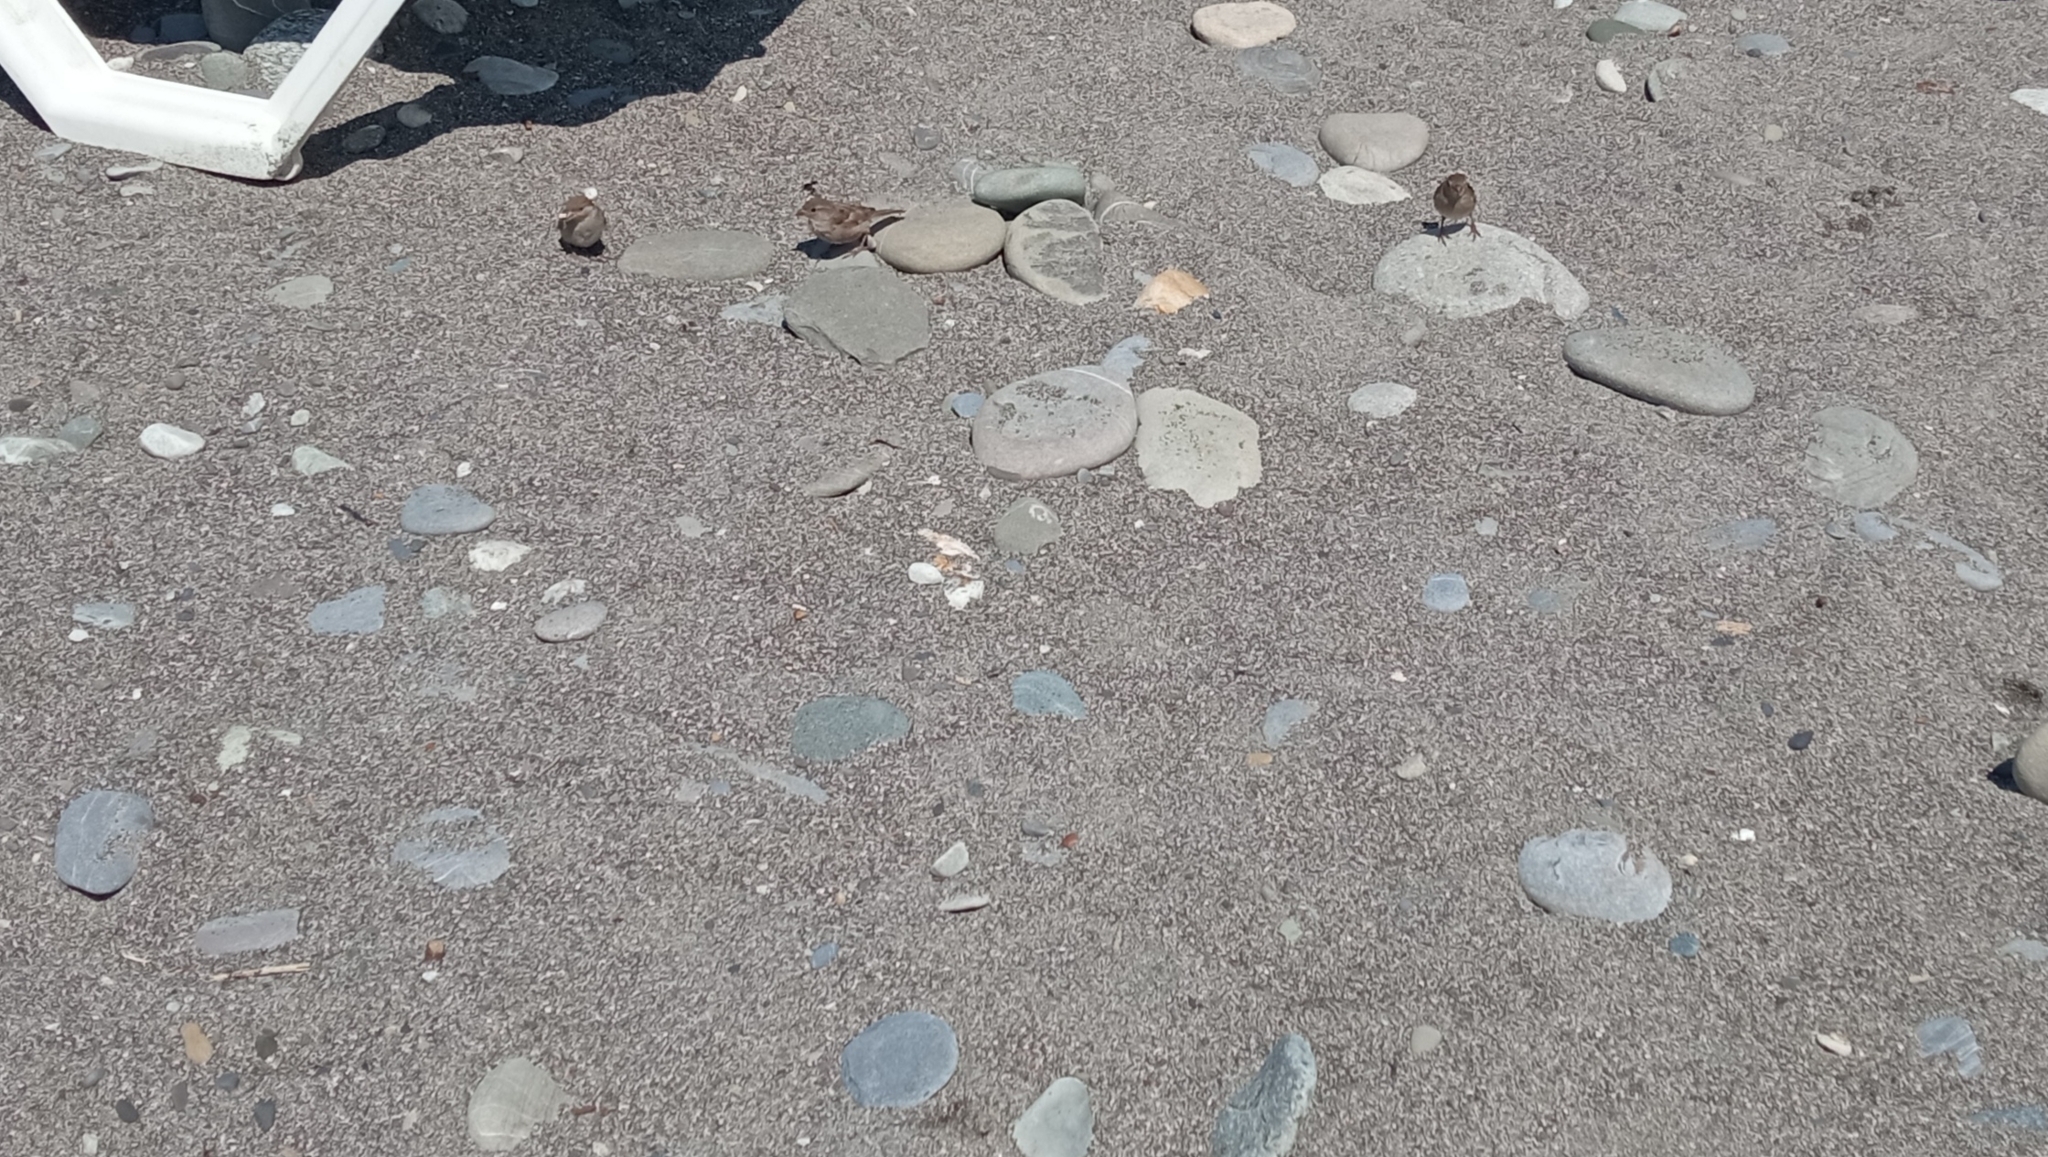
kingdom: Animalia
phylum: Chordata
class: Aves
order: Passeriformes
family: Passeridae
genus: Passer
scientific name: Passer domesticus
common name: House sparrow
